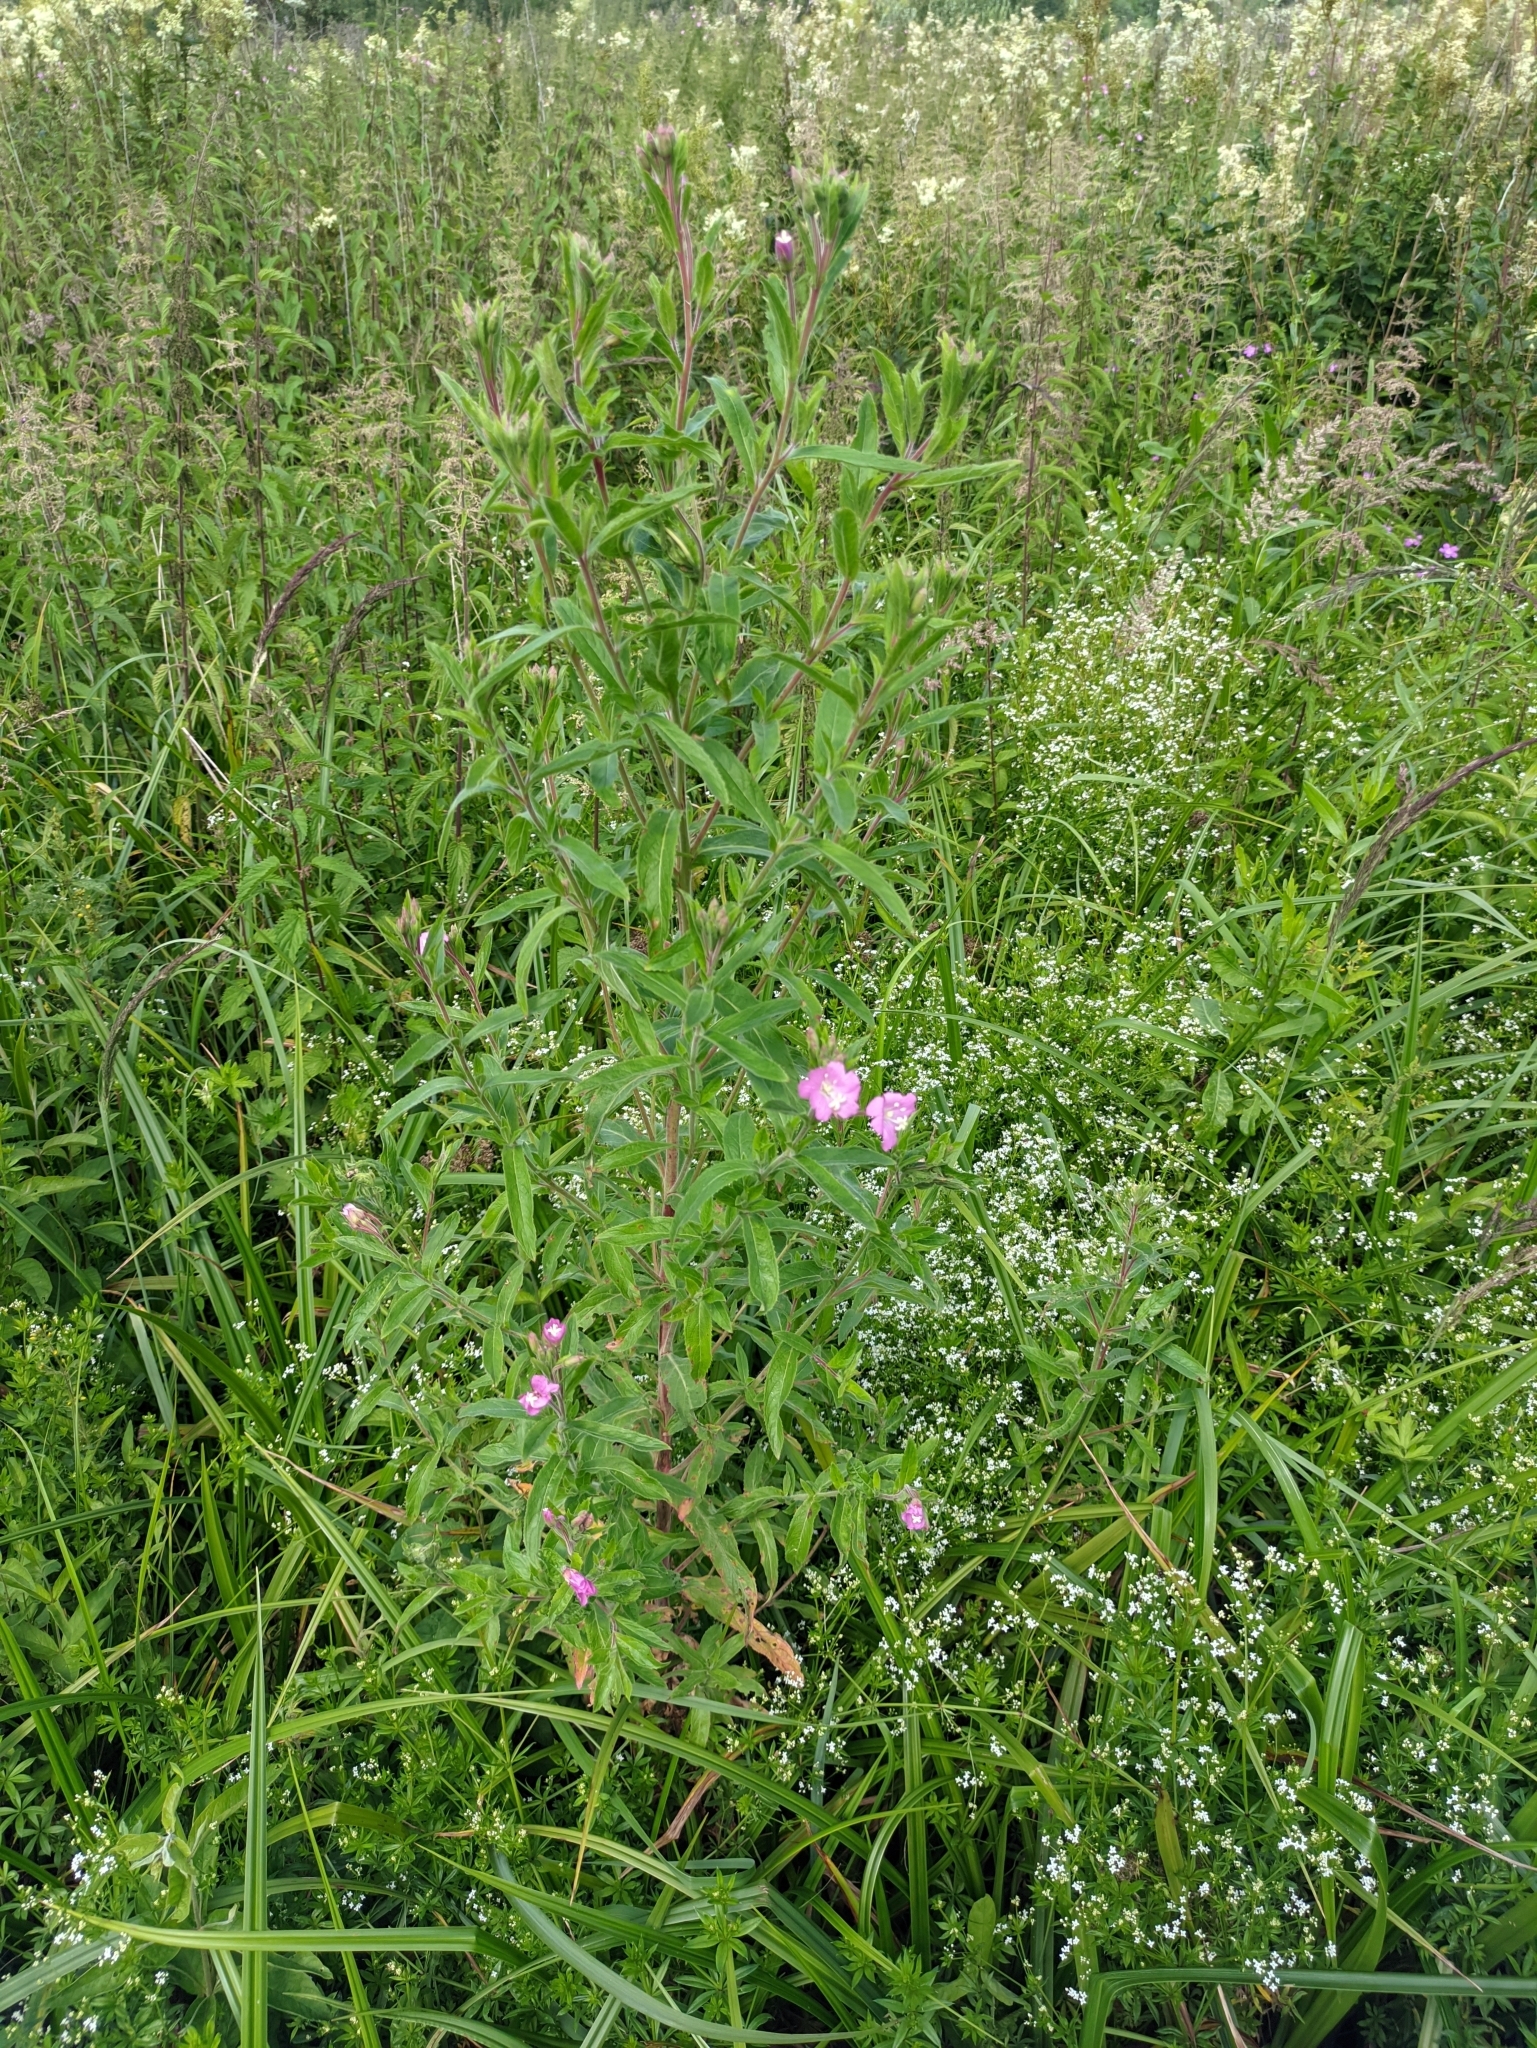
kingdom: Plantae
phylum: Tracheophyta
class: Magnoliopsida
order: Myrtales
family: Onagraceae
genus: Epilobium
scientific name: Epilobium hirsutum
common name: Great willowherb
